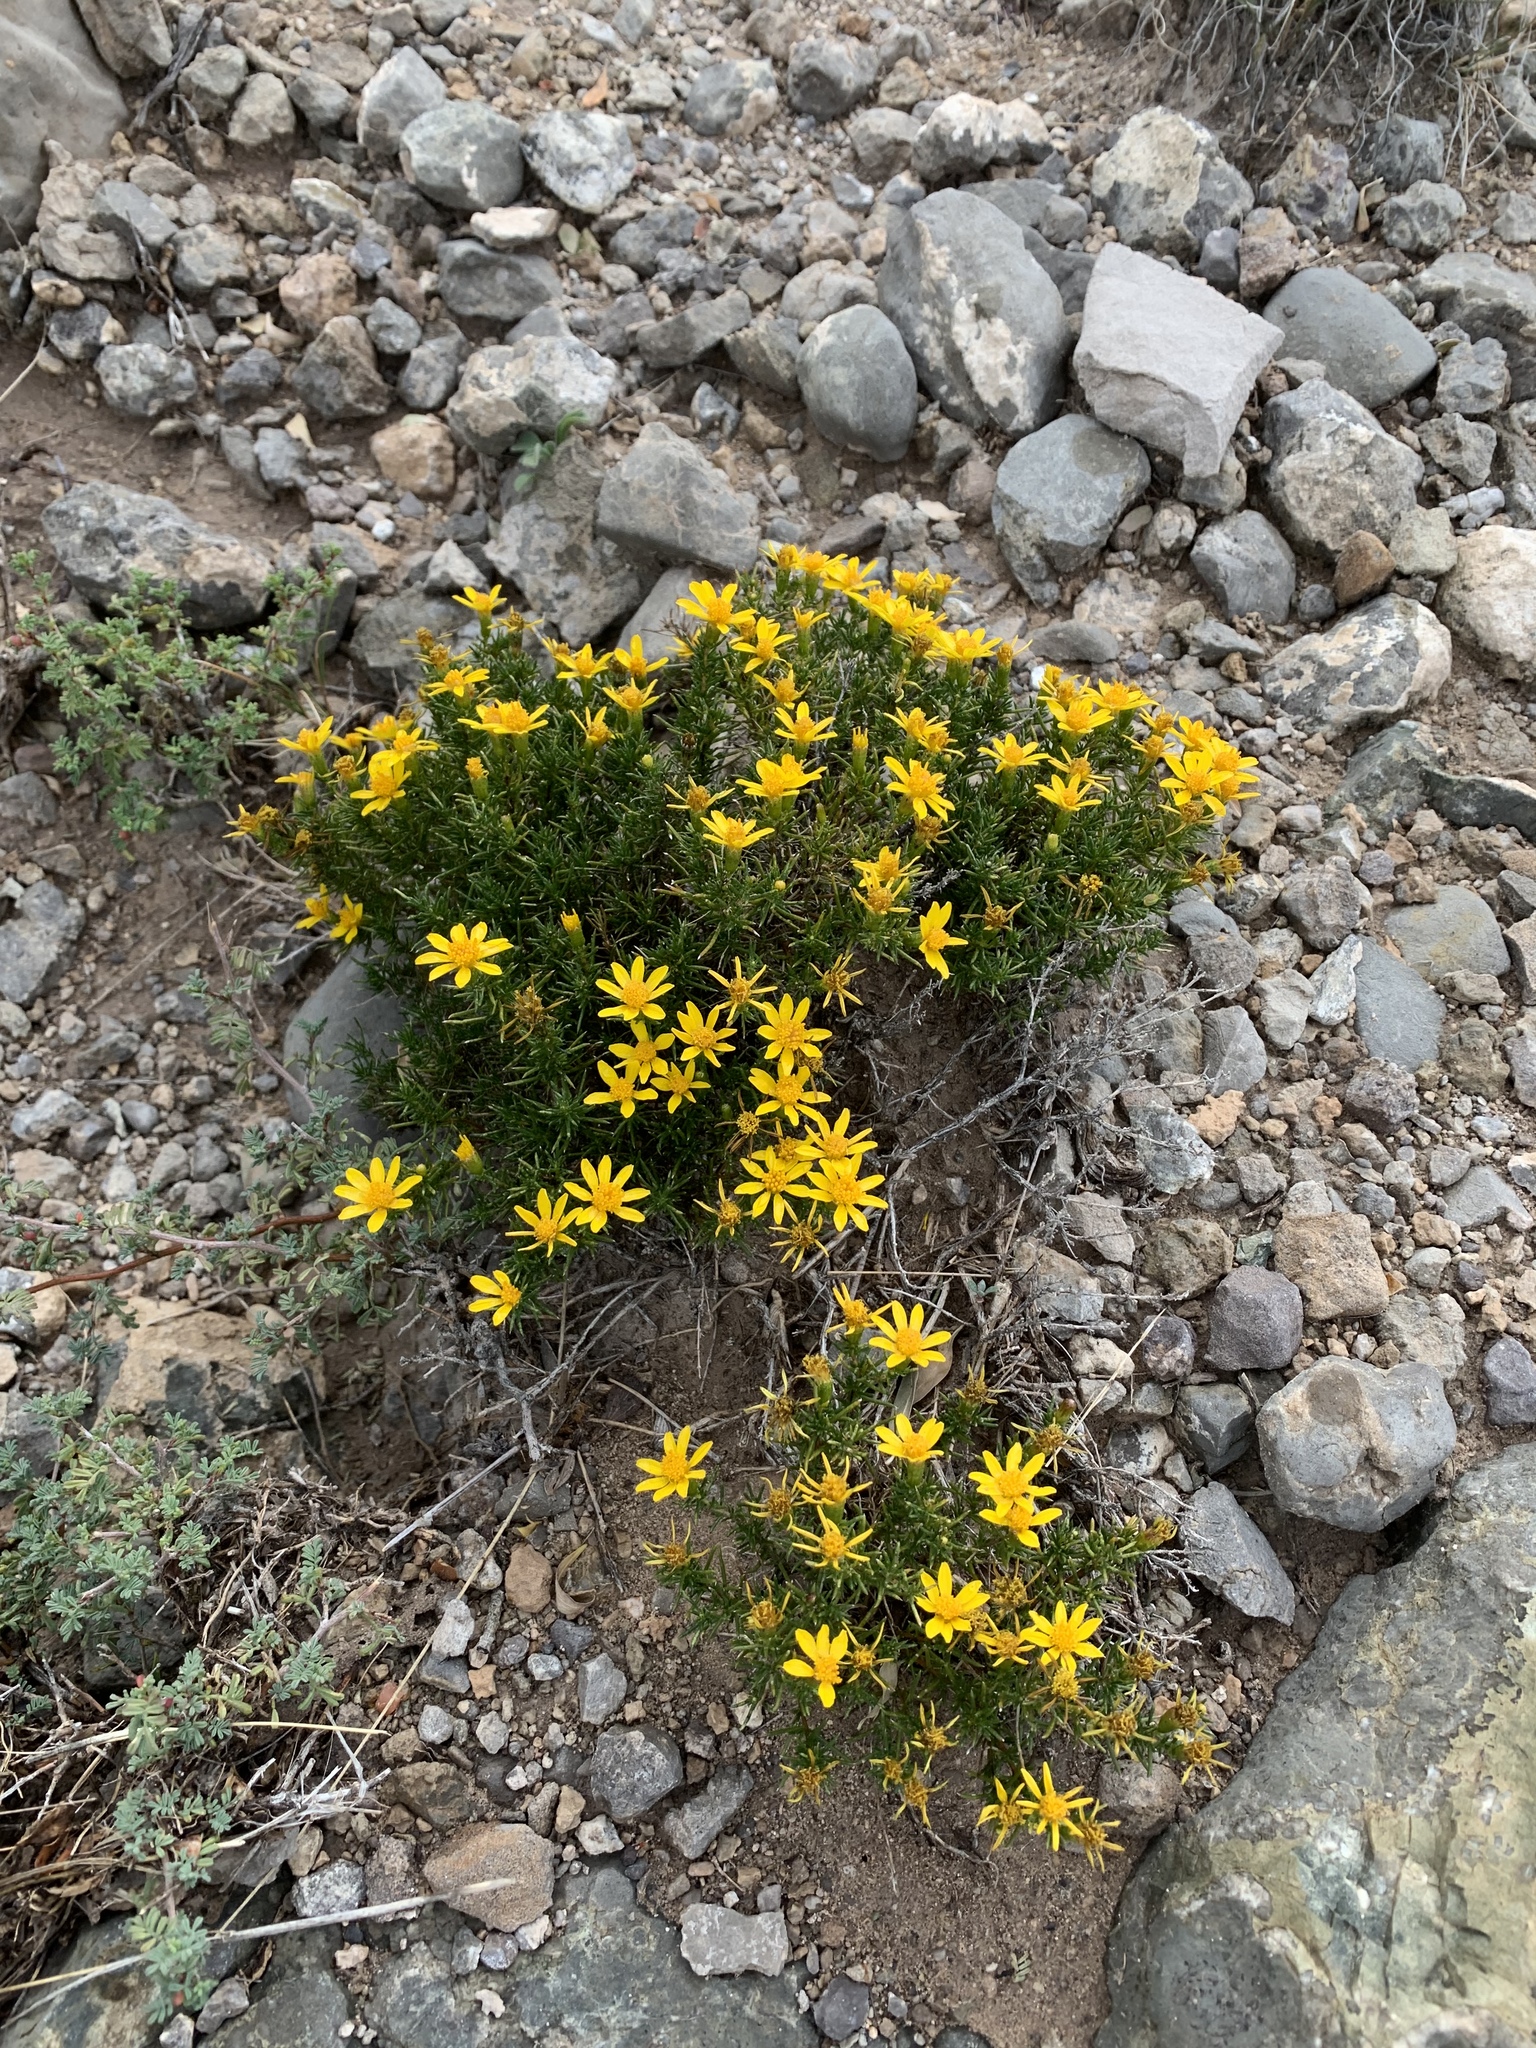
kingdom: Plantae
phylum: Tracheophyta
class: Magnoliopsida
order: Asterales
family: Asteraceae
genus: Thymophylla
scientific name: Thymophylla acerosa
